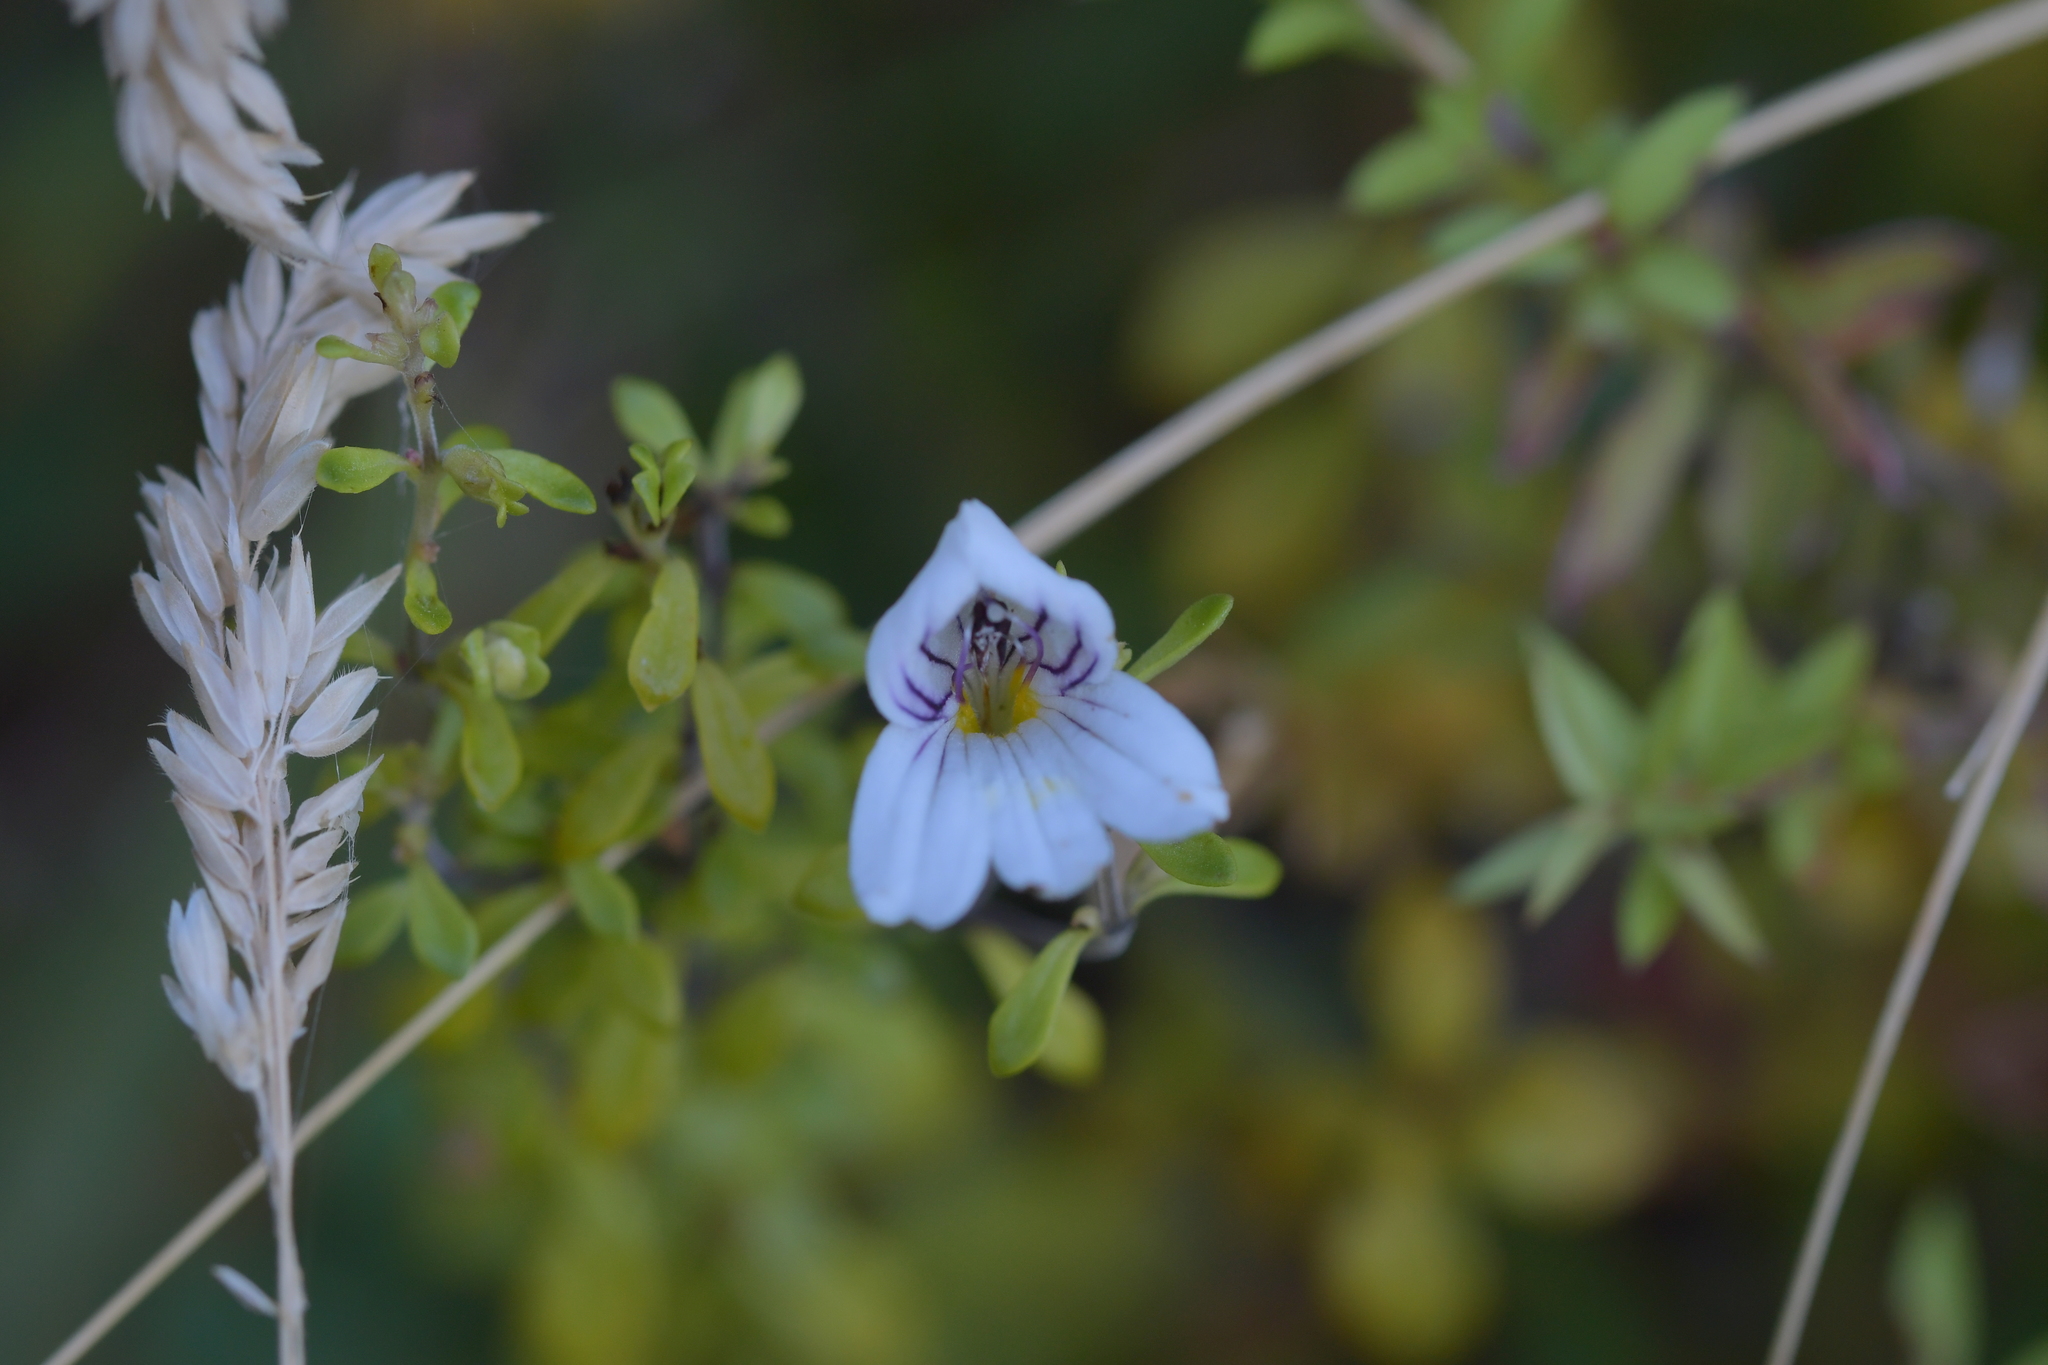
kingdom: Plantae
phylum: Tracheophyta
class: Magnoliopsida
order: Lamiales
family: Orobanchaceae
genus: Euphrasia
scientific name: Euphrasia cuneata
